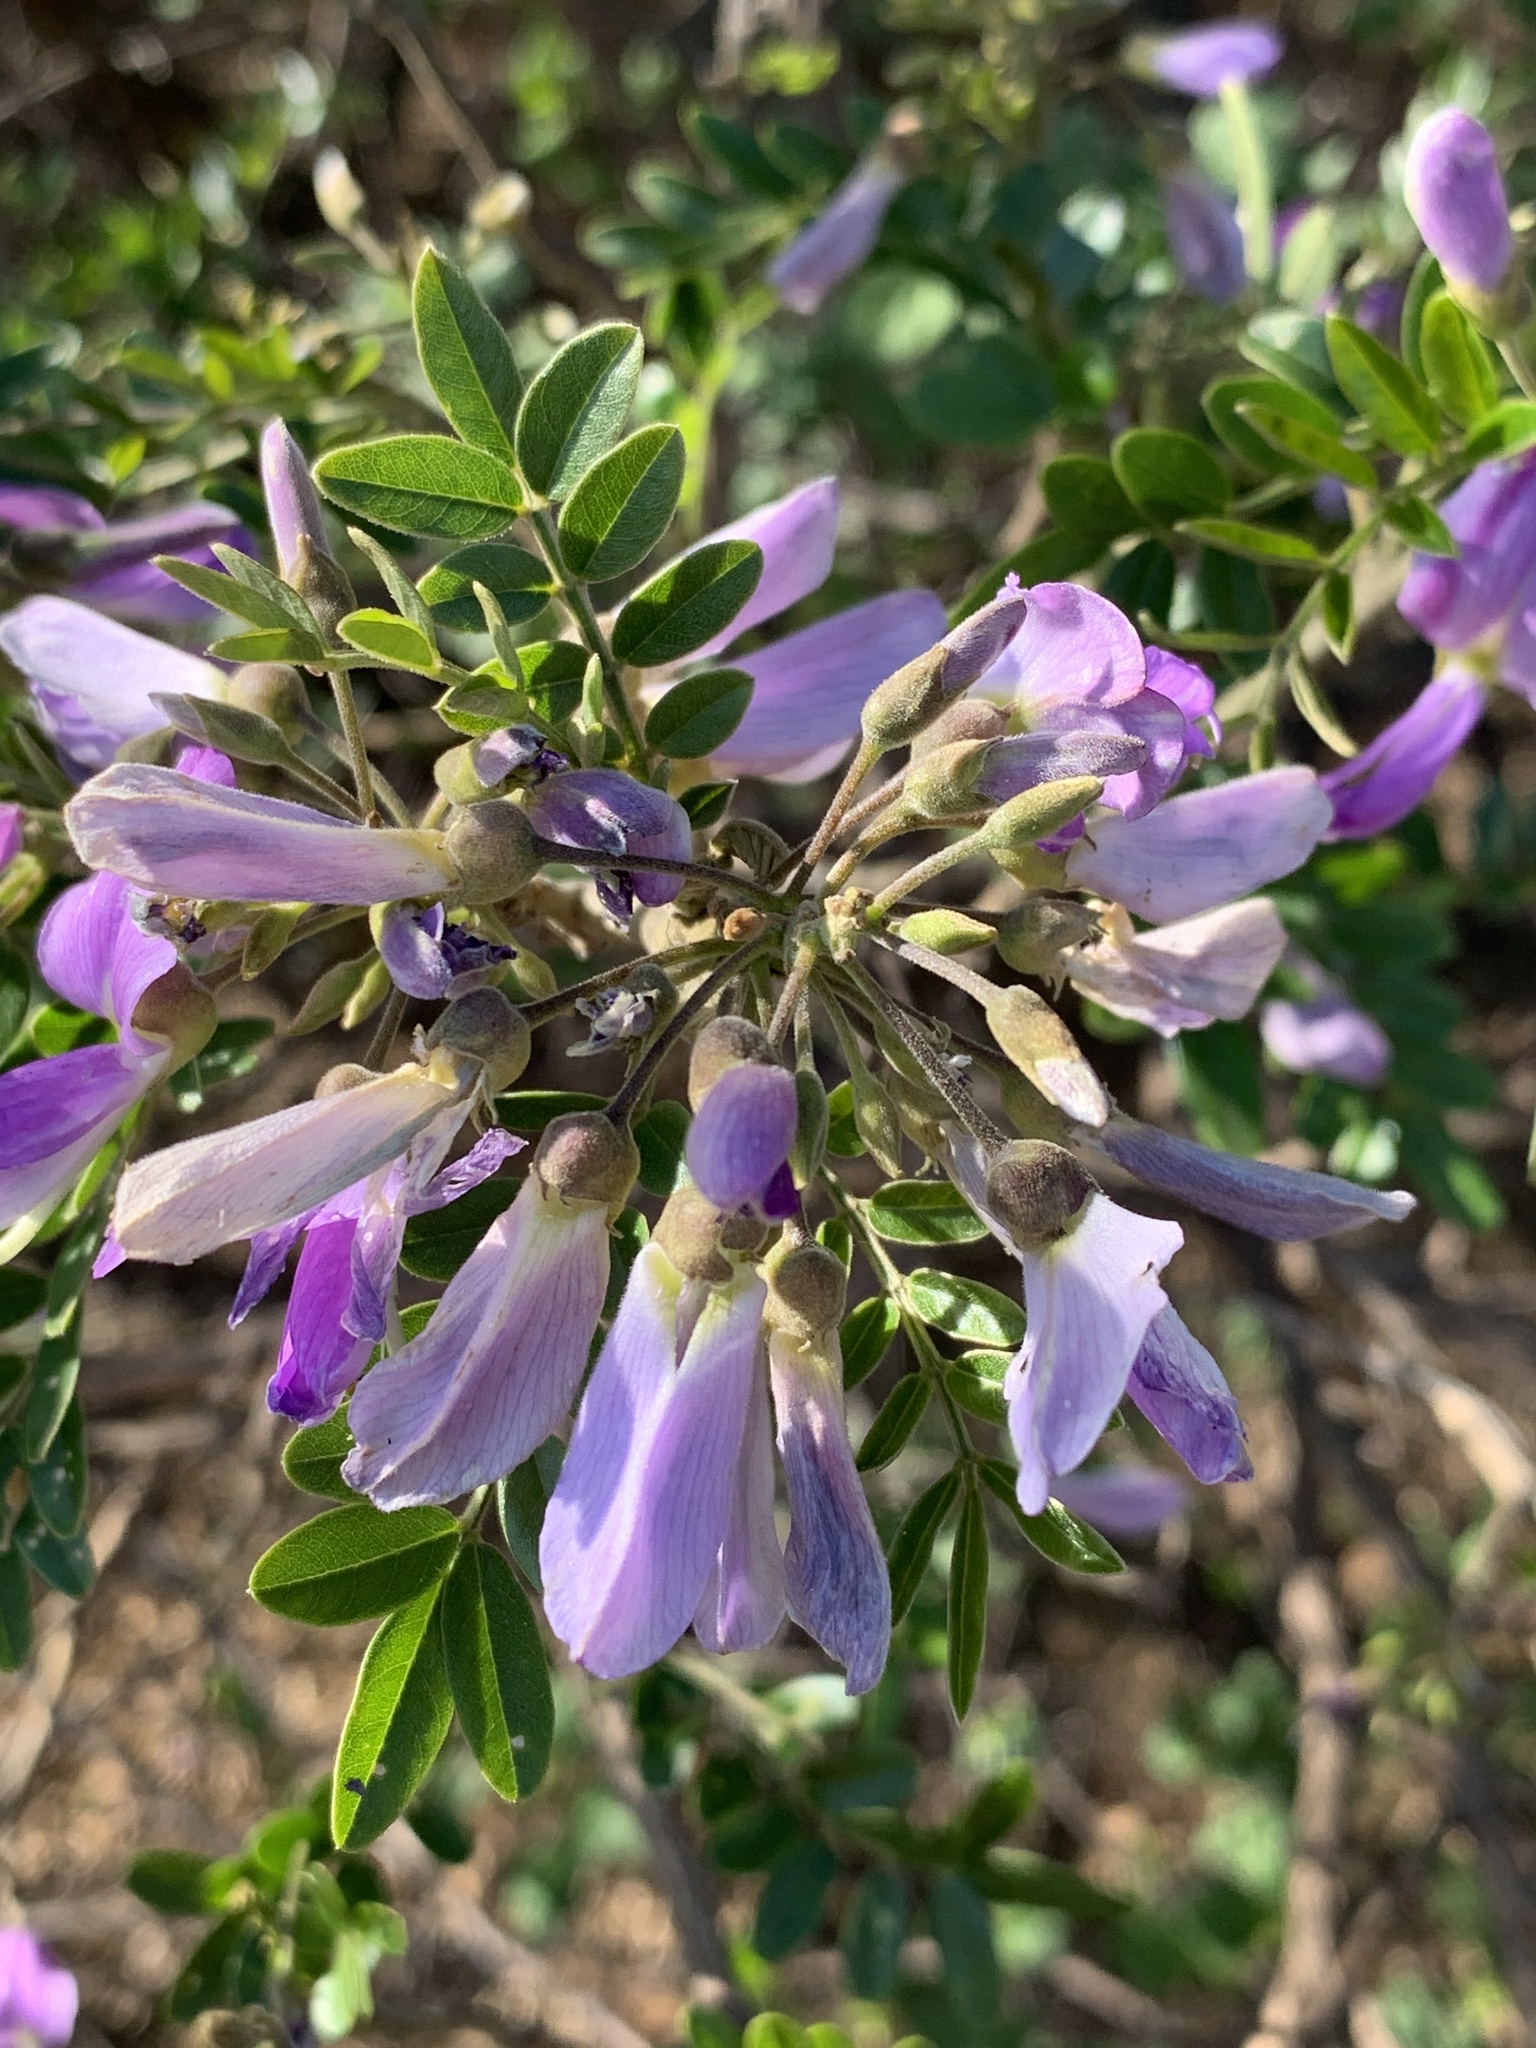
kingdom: Plantae
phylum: Tracheophyta
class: Magnoliopsida
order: Fabales
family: Fabaceae
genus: Mundulea
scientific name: Mundulea sericea
